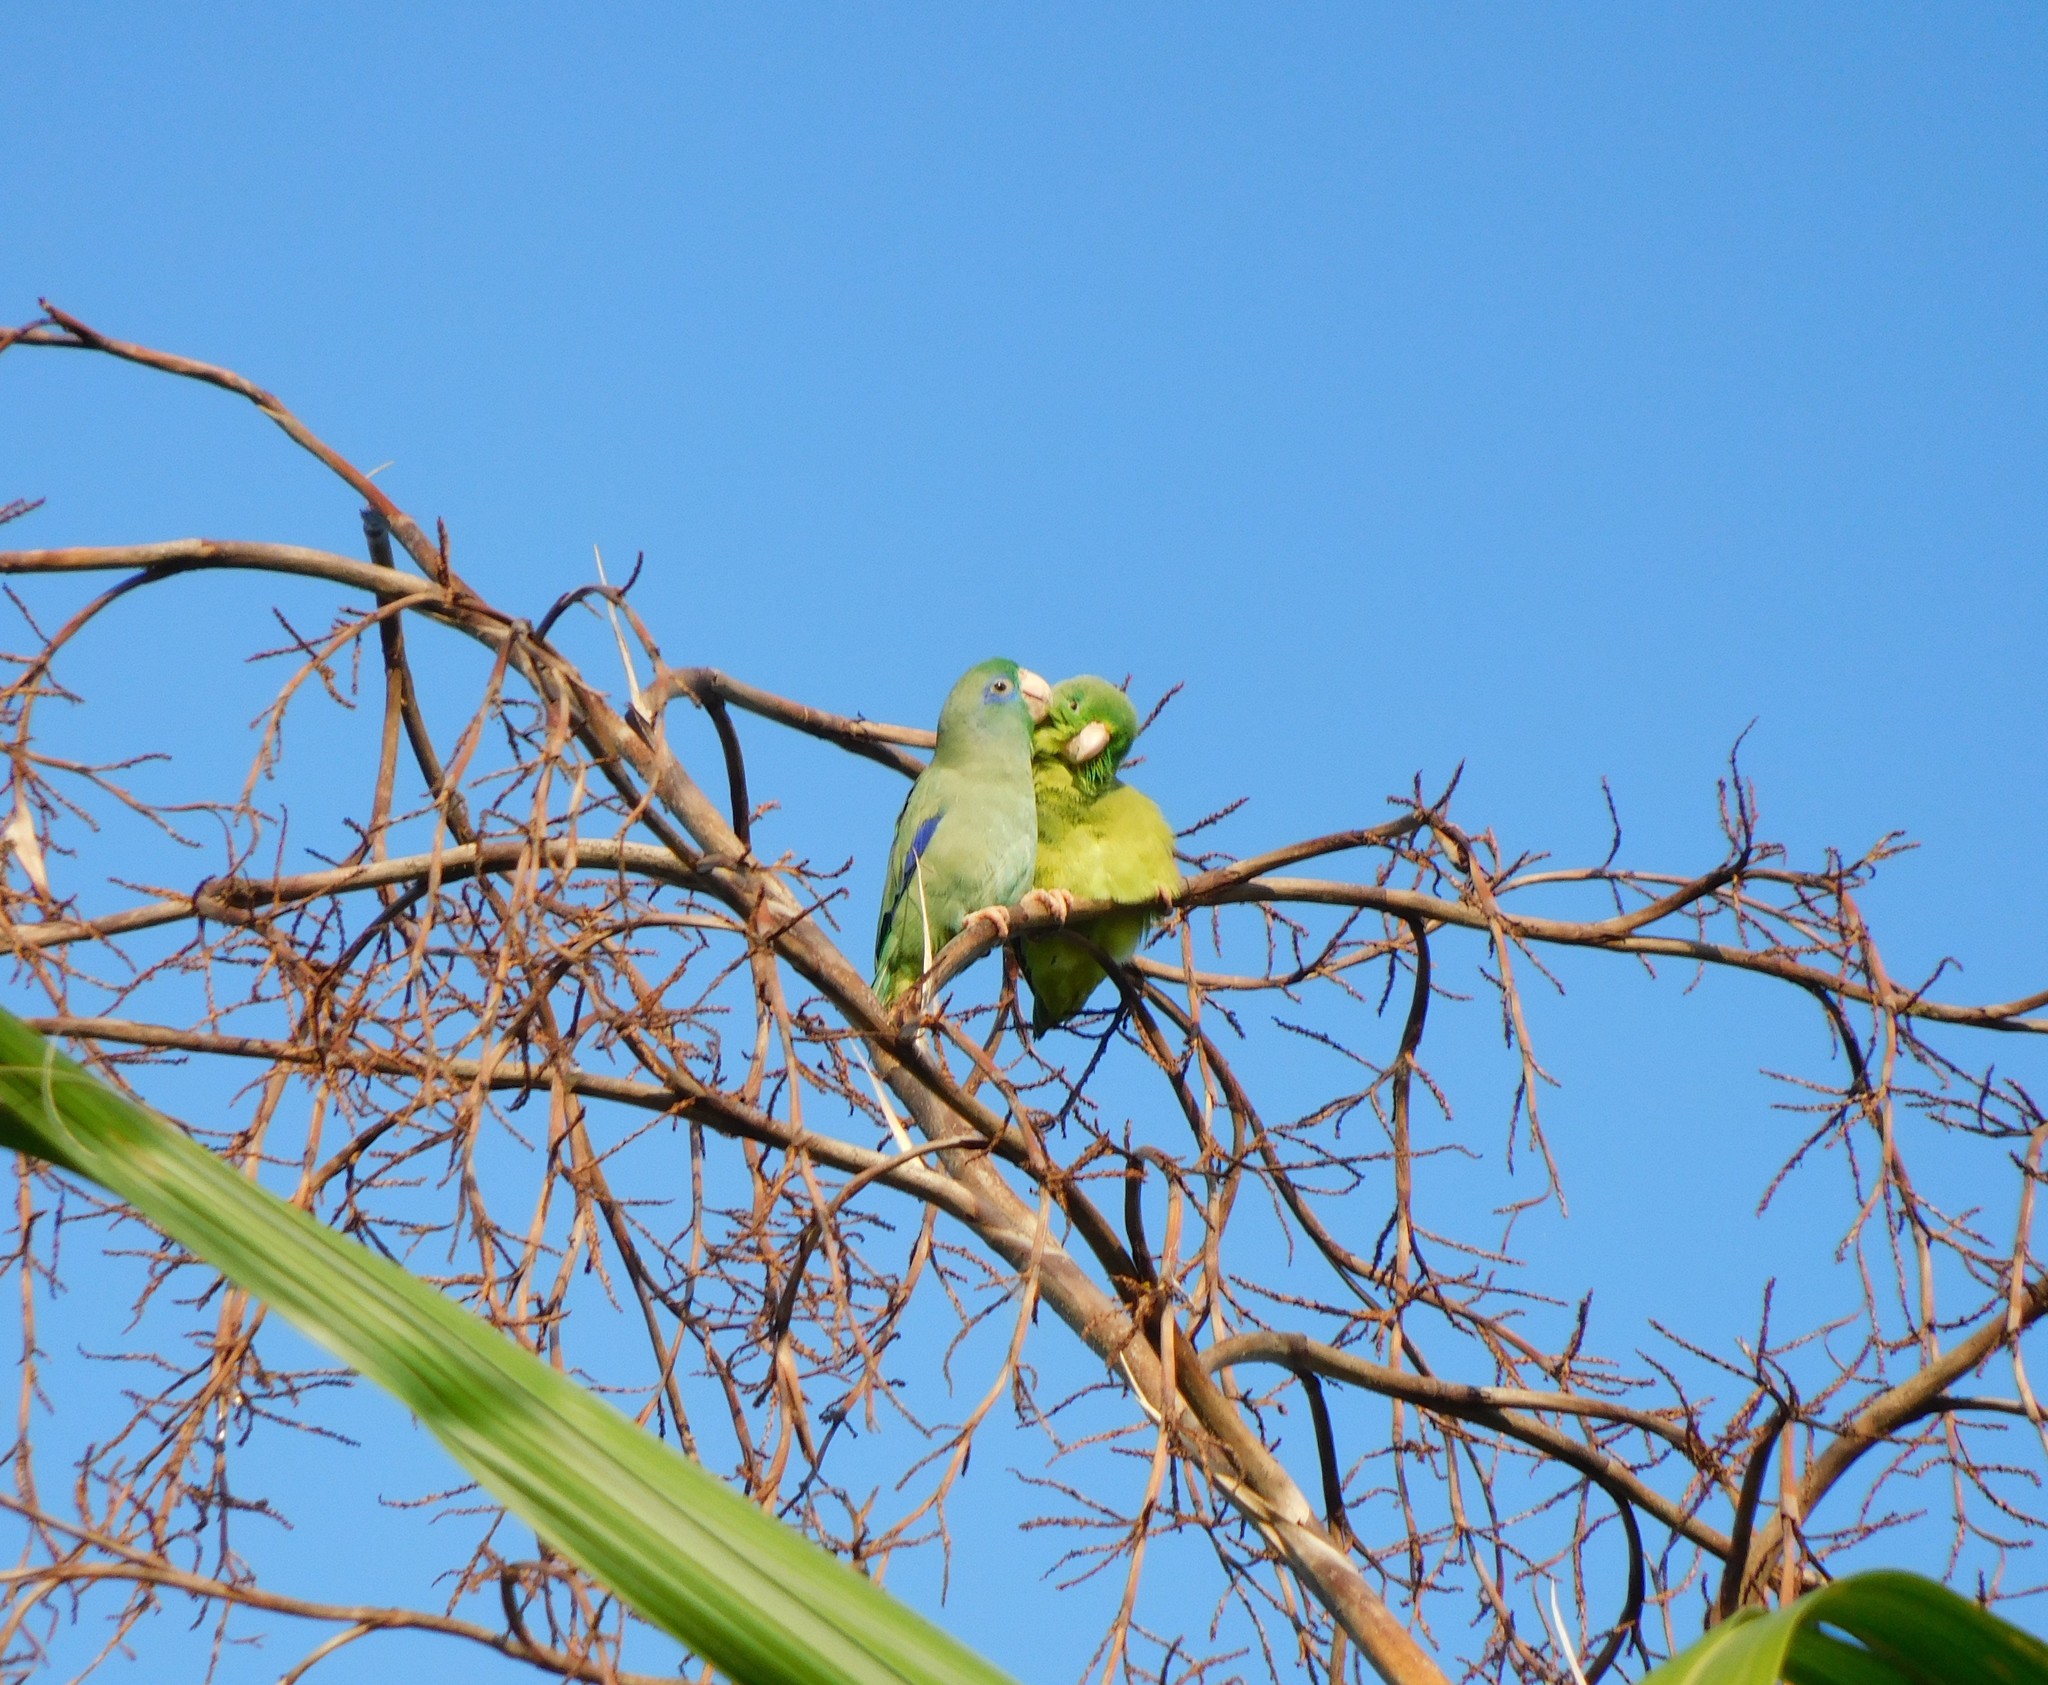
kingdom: Animalia
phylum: Chordata
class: Aves
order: Psittaciformes
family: Psittacidae
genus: Forpus
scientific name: Forpus conspicillatus
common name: Spectacled parrotlet
